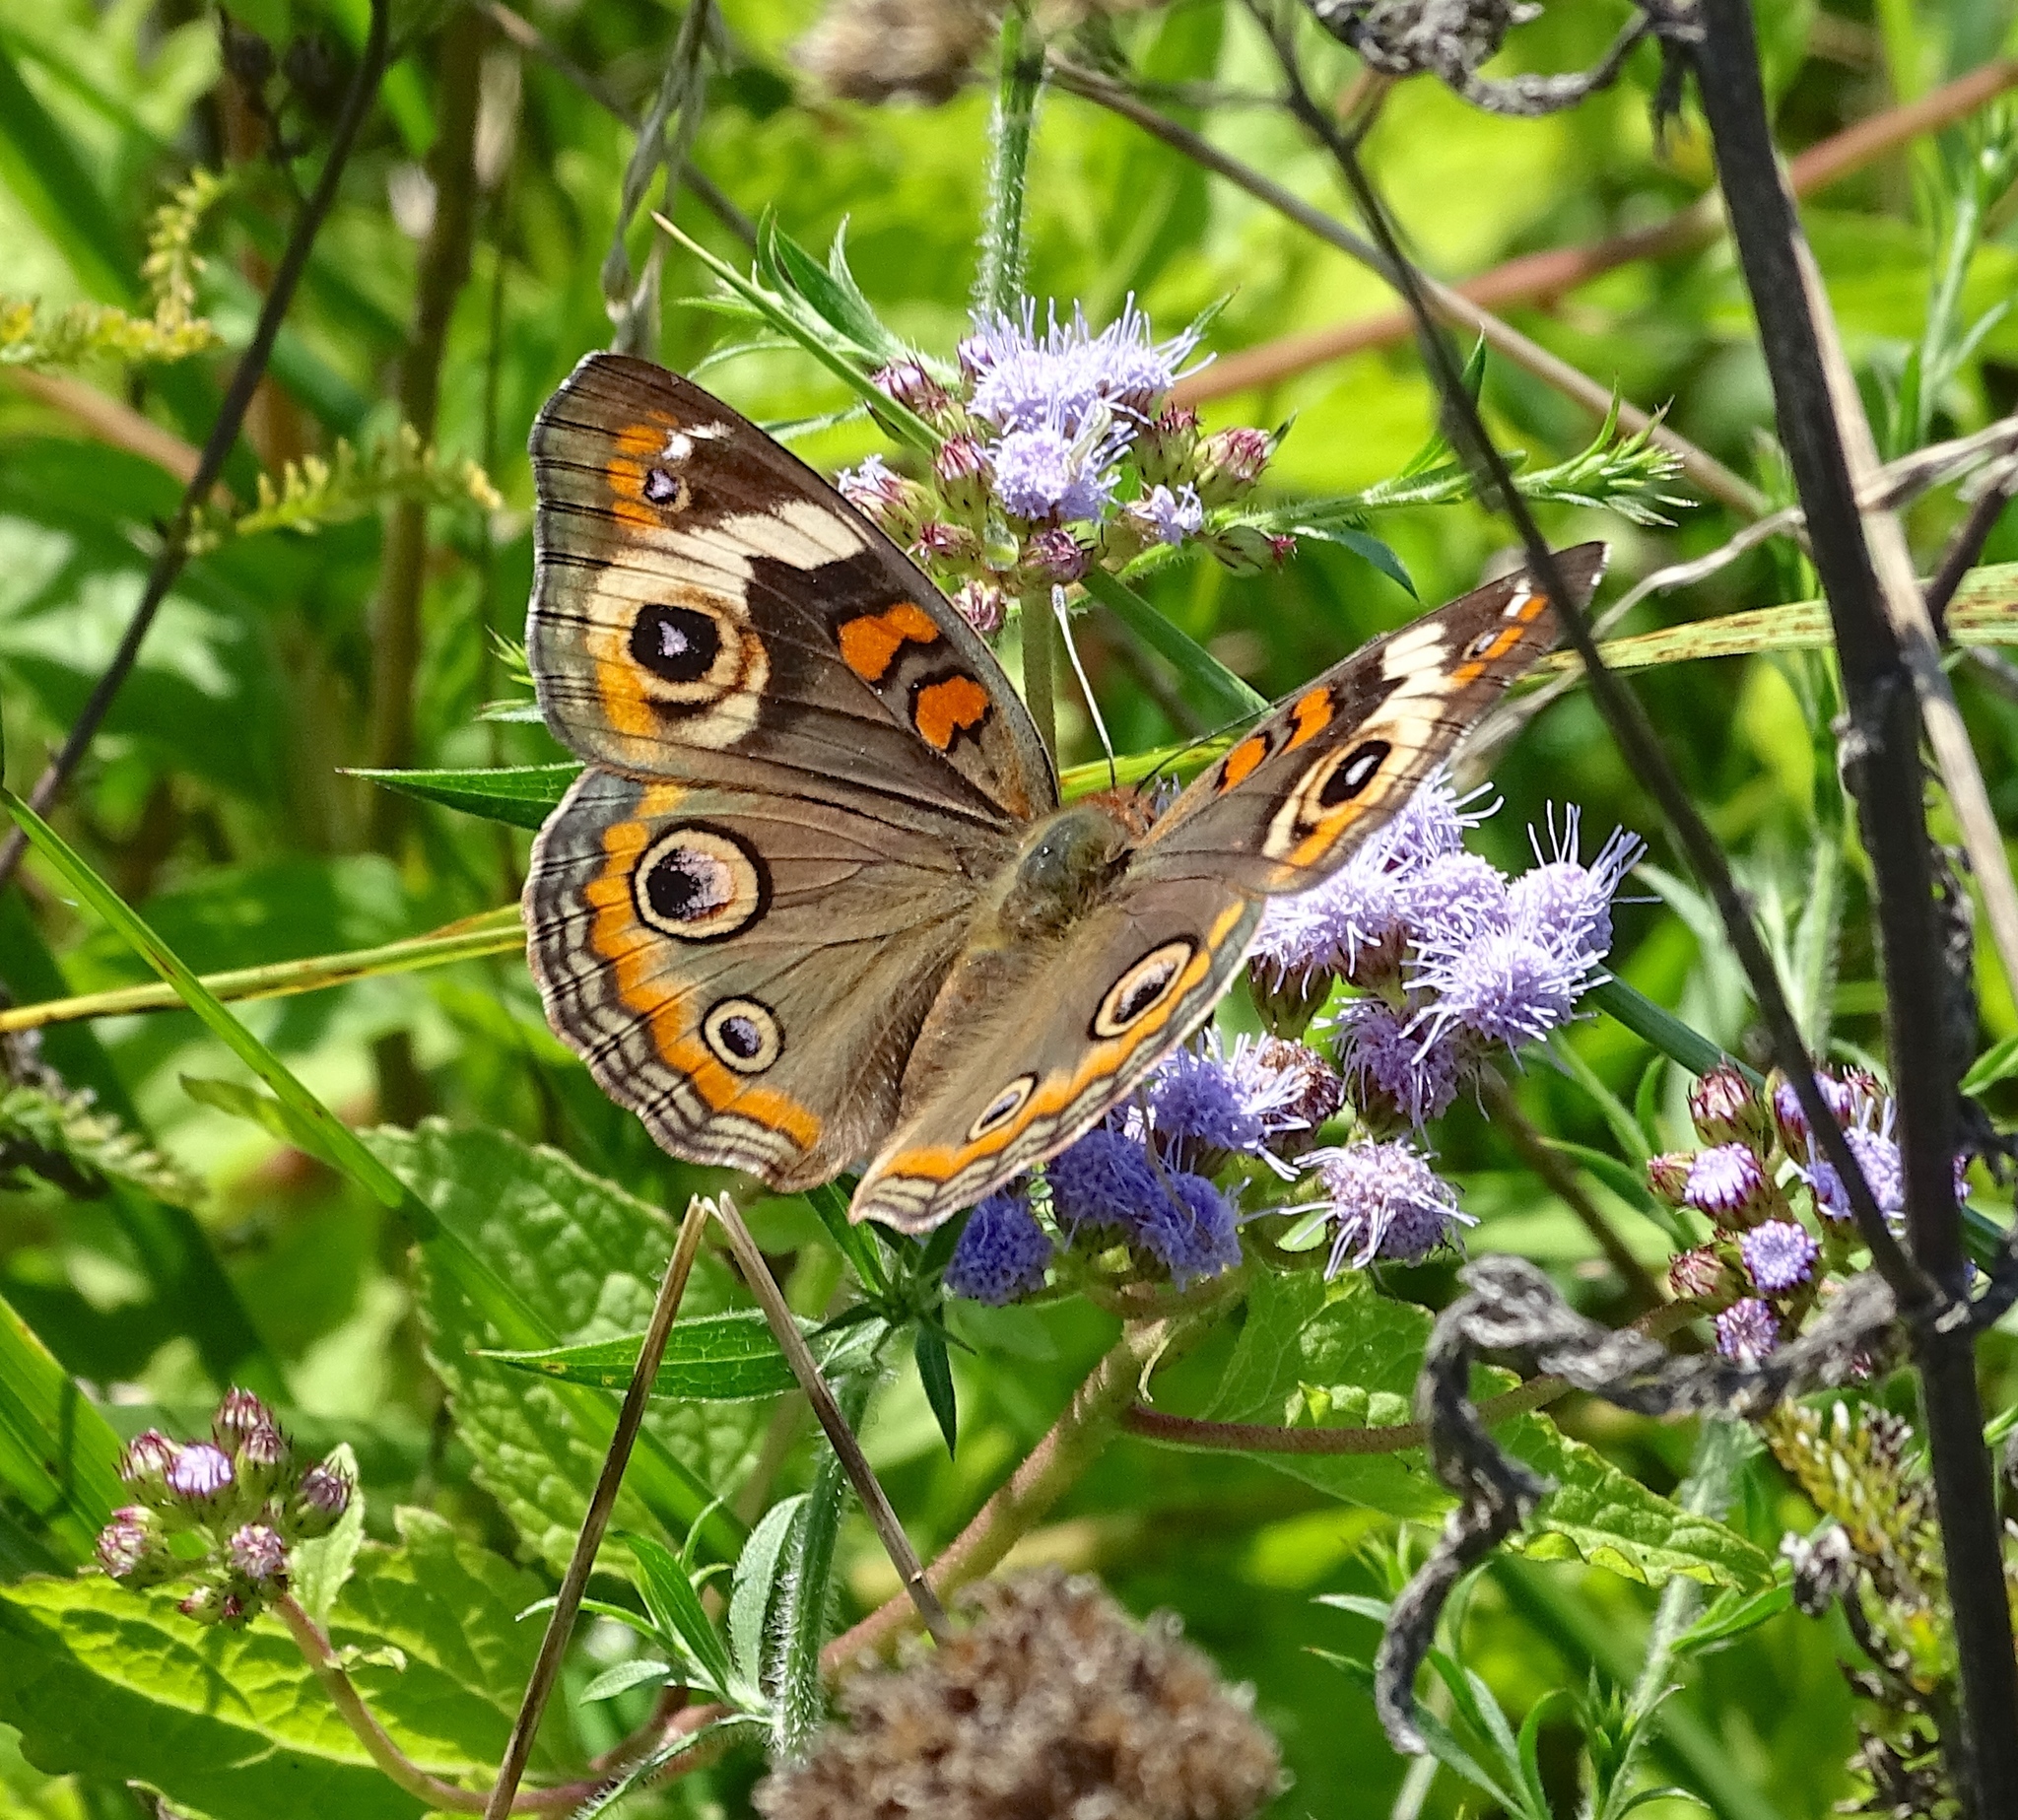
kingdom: Animalia
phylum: Arthropoda
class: Insecta
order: Lepidoptera
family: Nymphalidae
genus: Junonia
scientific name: Junonia coenia
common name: Common buckeye
